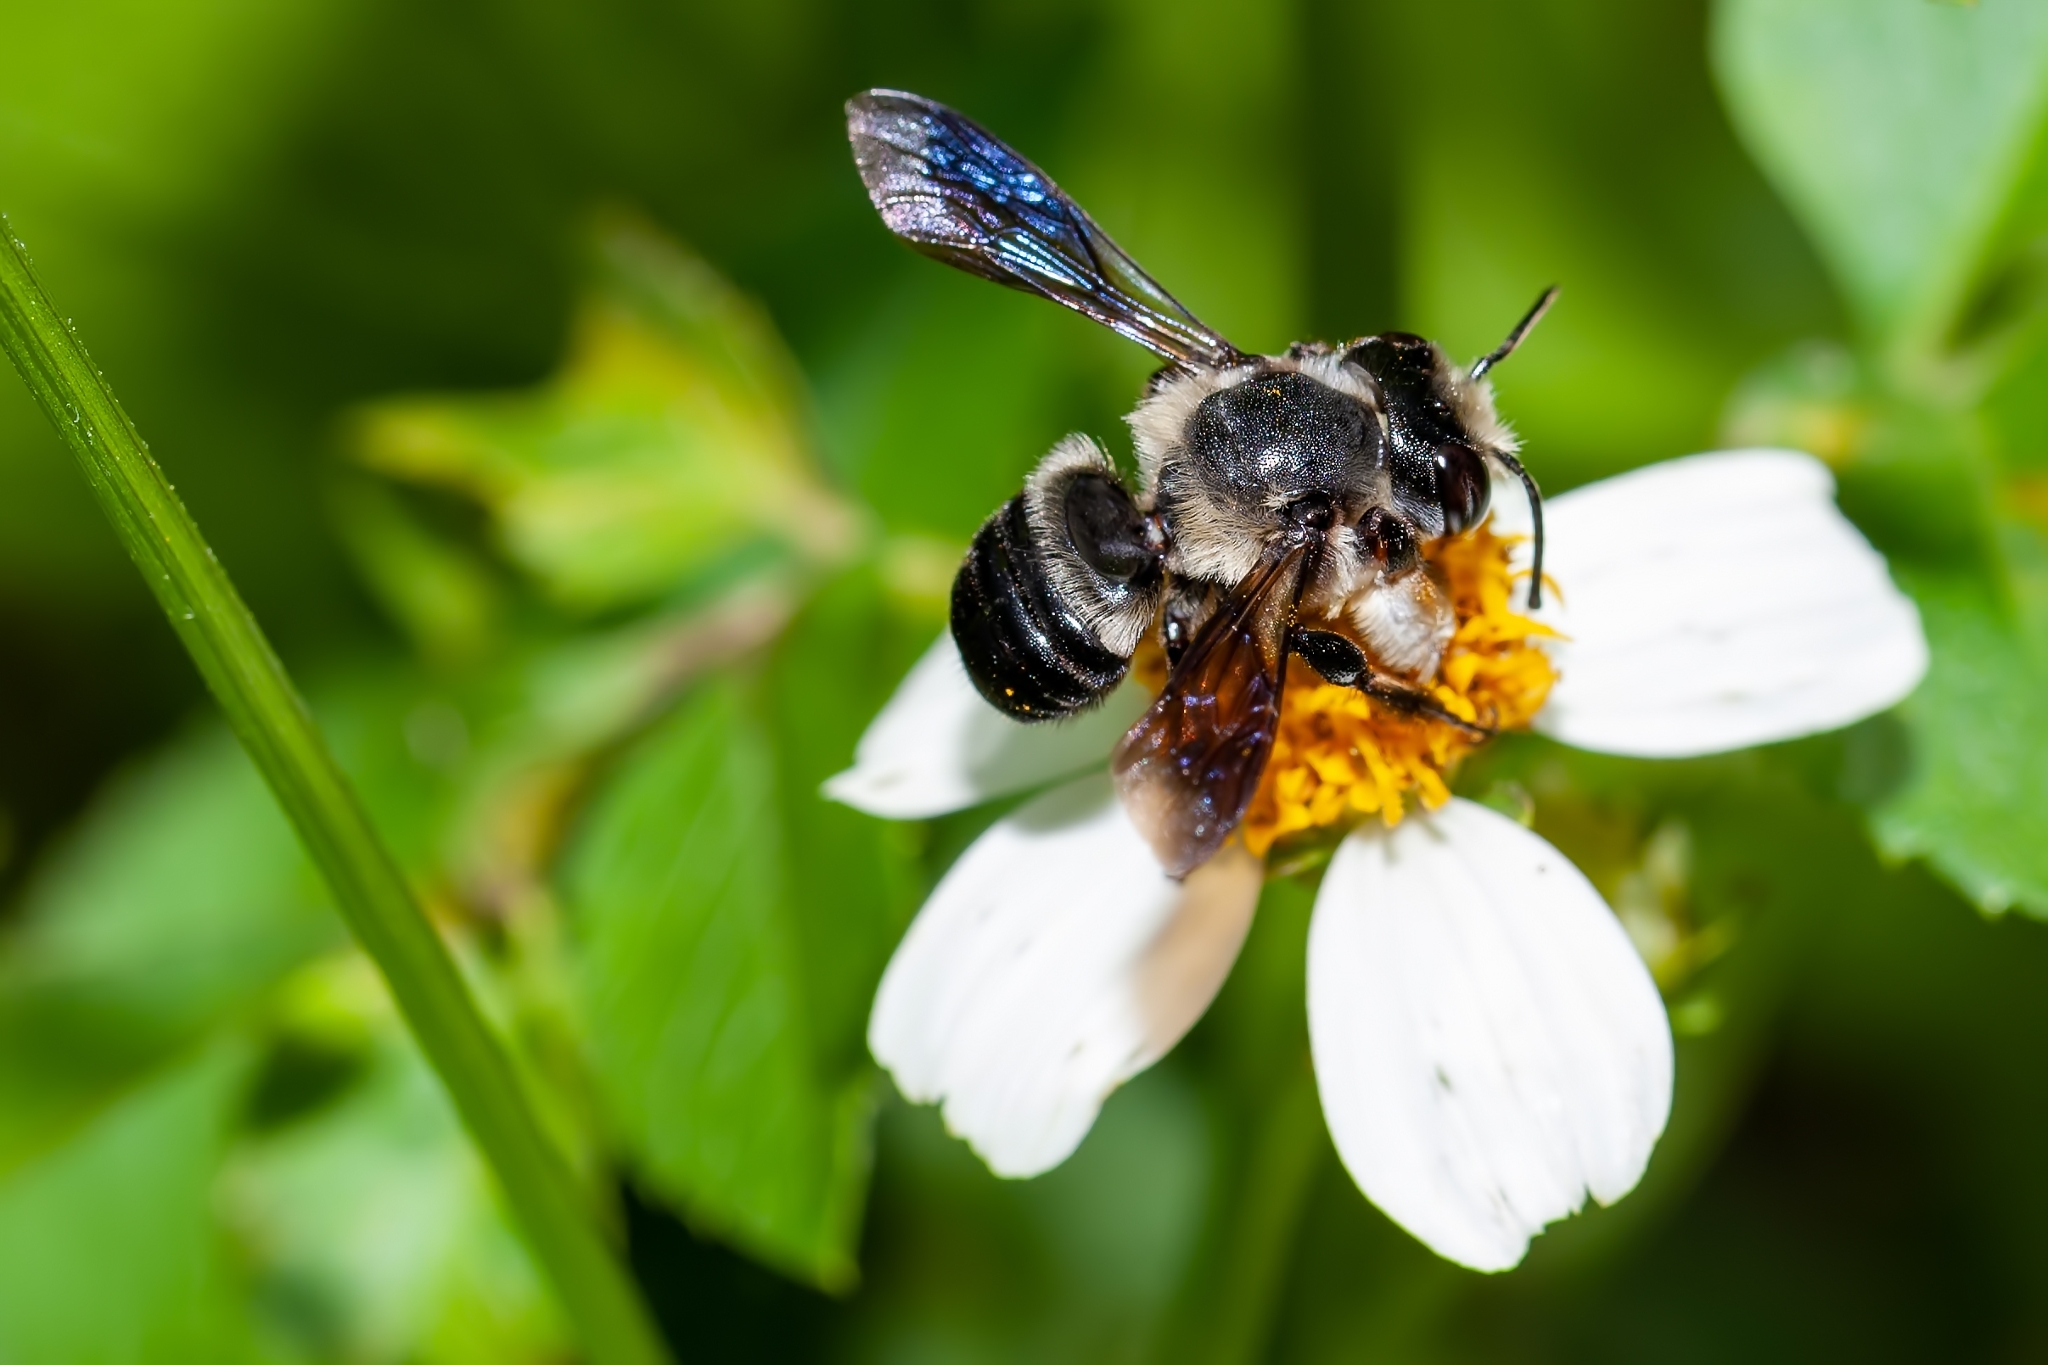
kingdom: Animalia
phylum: Arthropoda
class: Insecta
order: Hymenoptera
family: Megachilidae
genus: Megachile
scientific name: Megachile xylocopoides
